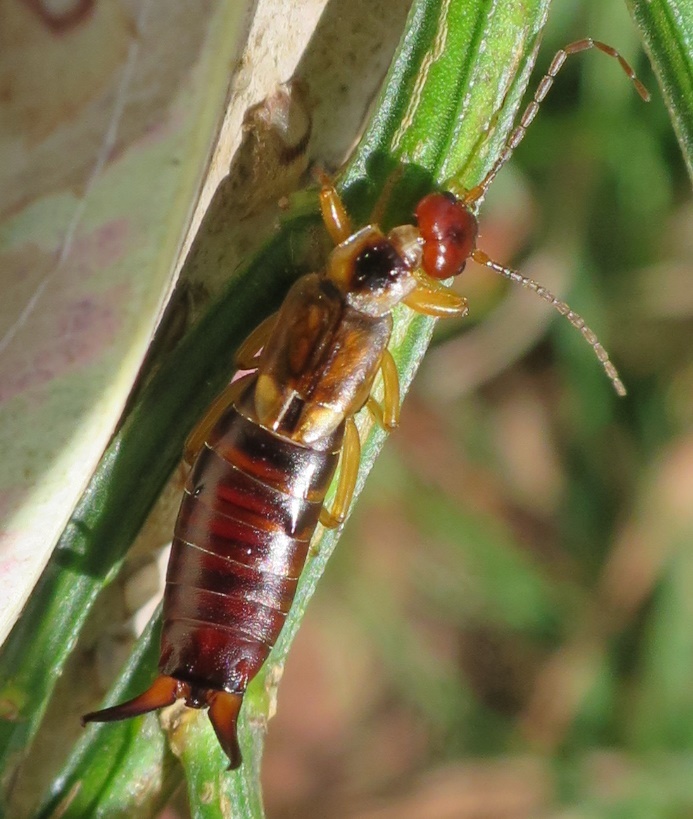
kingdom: Animalia
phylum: Arthropoda
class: Insecta
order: Dermaptera
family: Forficulidae
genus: Forficula
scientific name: Forficula
